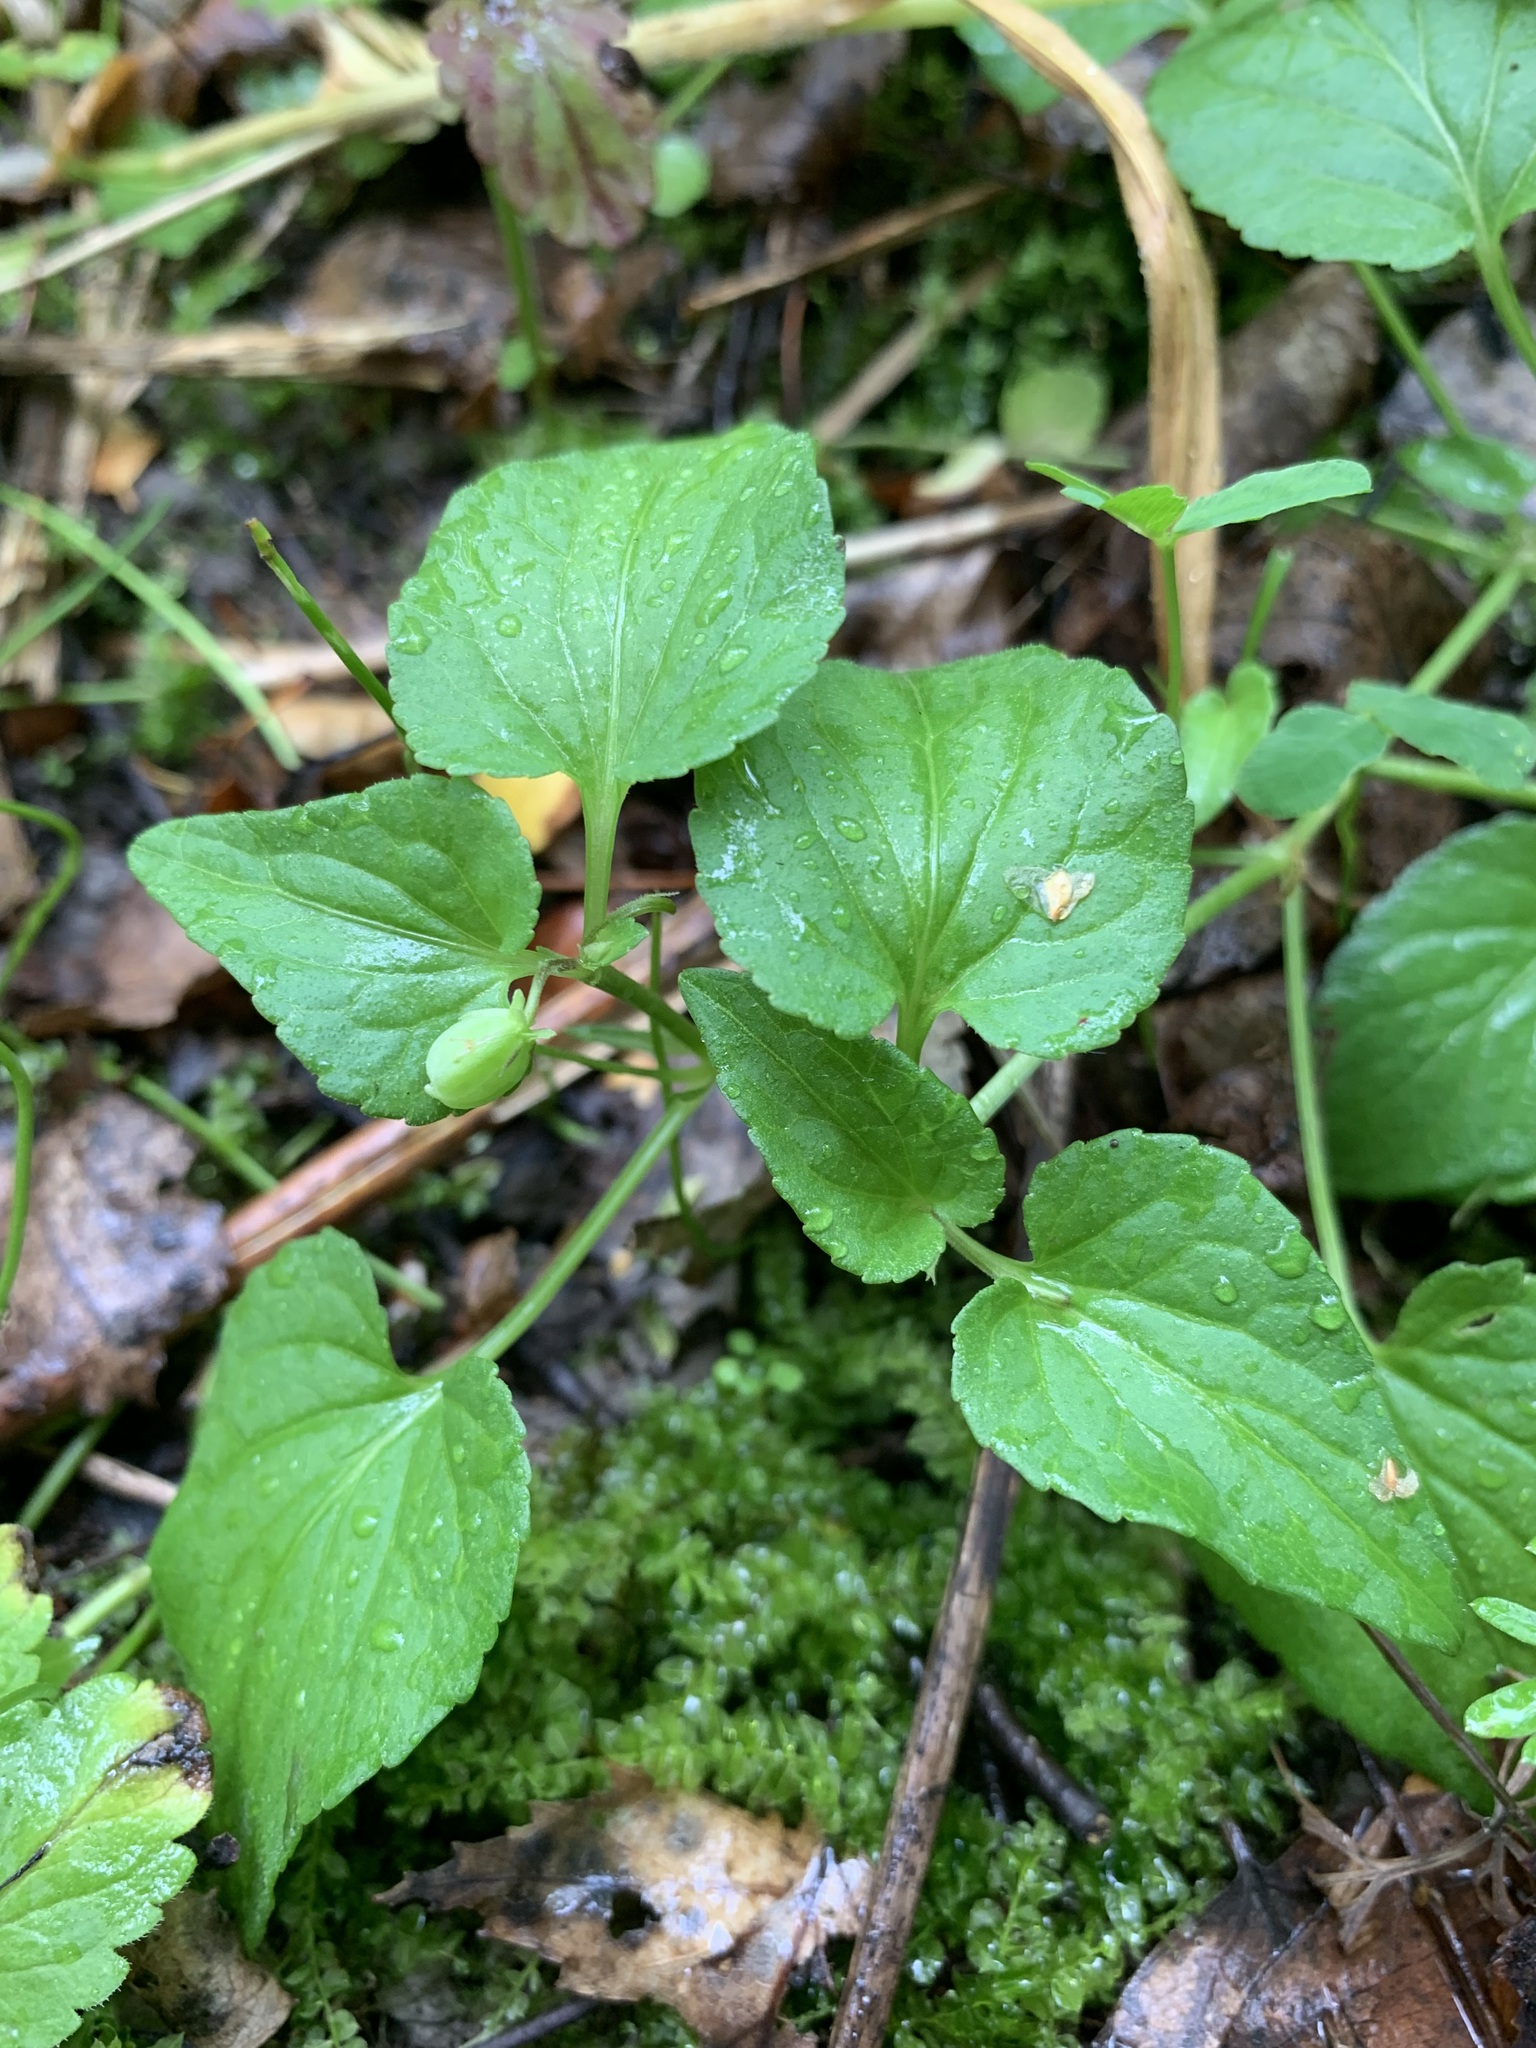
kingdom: Plantae
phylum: Tracheophyta
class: Magnoliopsida
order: Malpighiales
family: Violaceae
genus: Viola
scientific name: Viola
